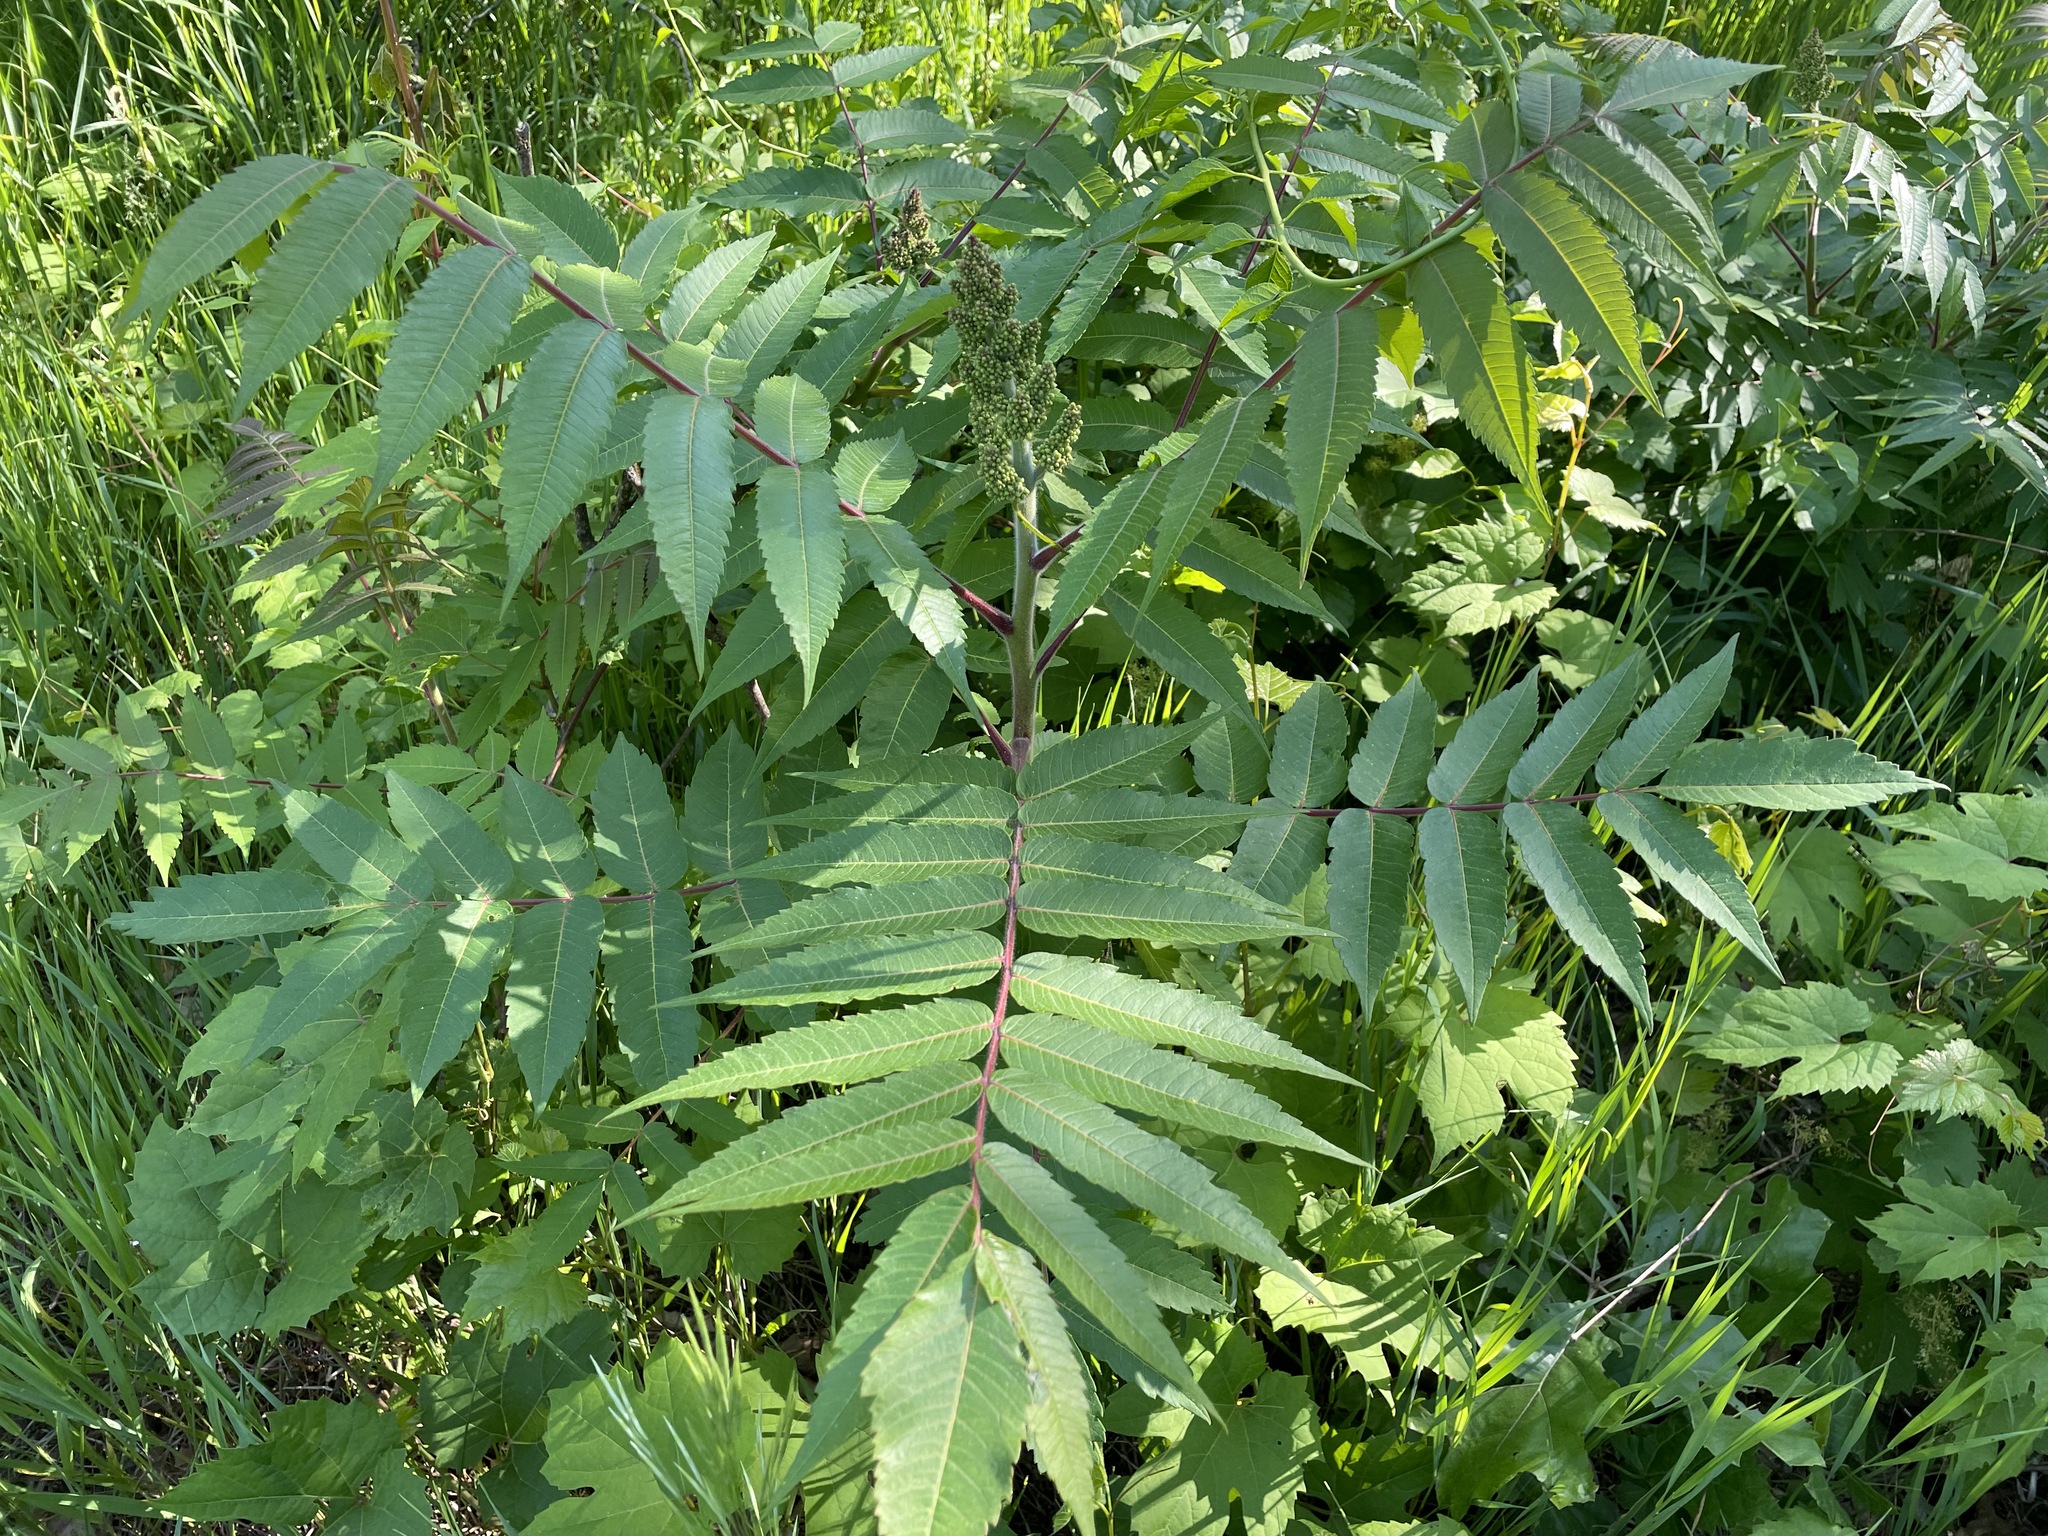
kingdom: Plantae
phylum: Tracheophyta
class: Magnoliopsida
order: Sapindales
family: Anacardiaceae
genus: Rhus
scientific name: Rhus typhina
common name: Staghorn sumac
